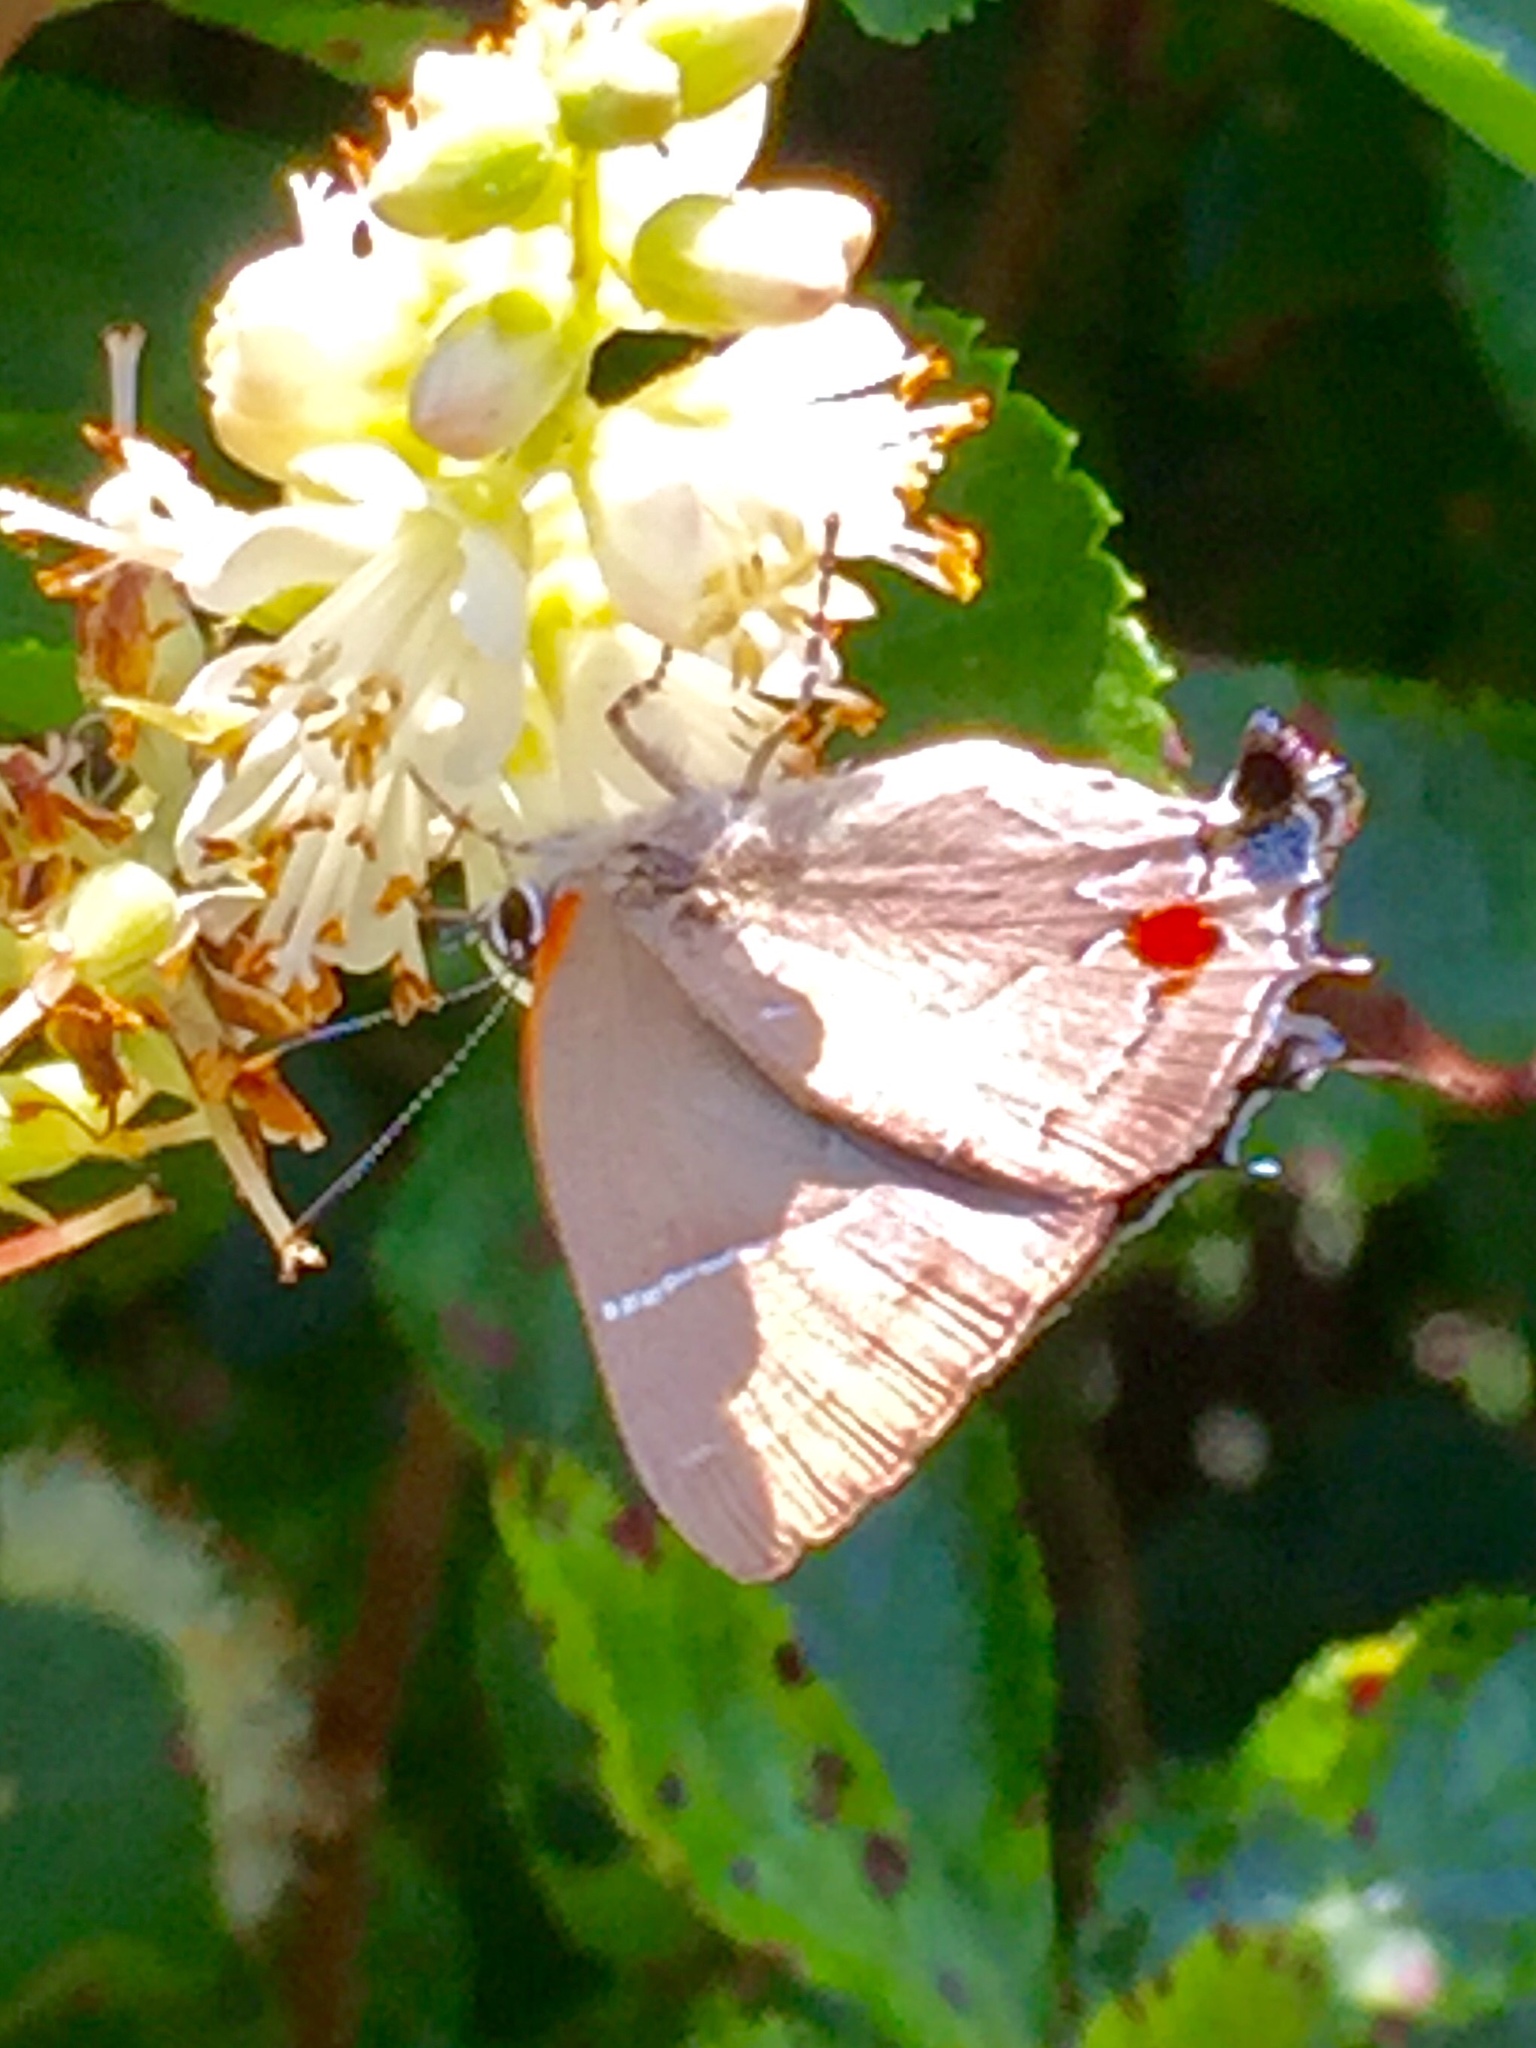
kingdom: Animalia
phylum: Arthropoda
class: Insecta
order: Lepidoptera
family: Lycaenidae
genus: Parrhasius
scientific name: Parrhasius m-album
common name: White m hairstreak
